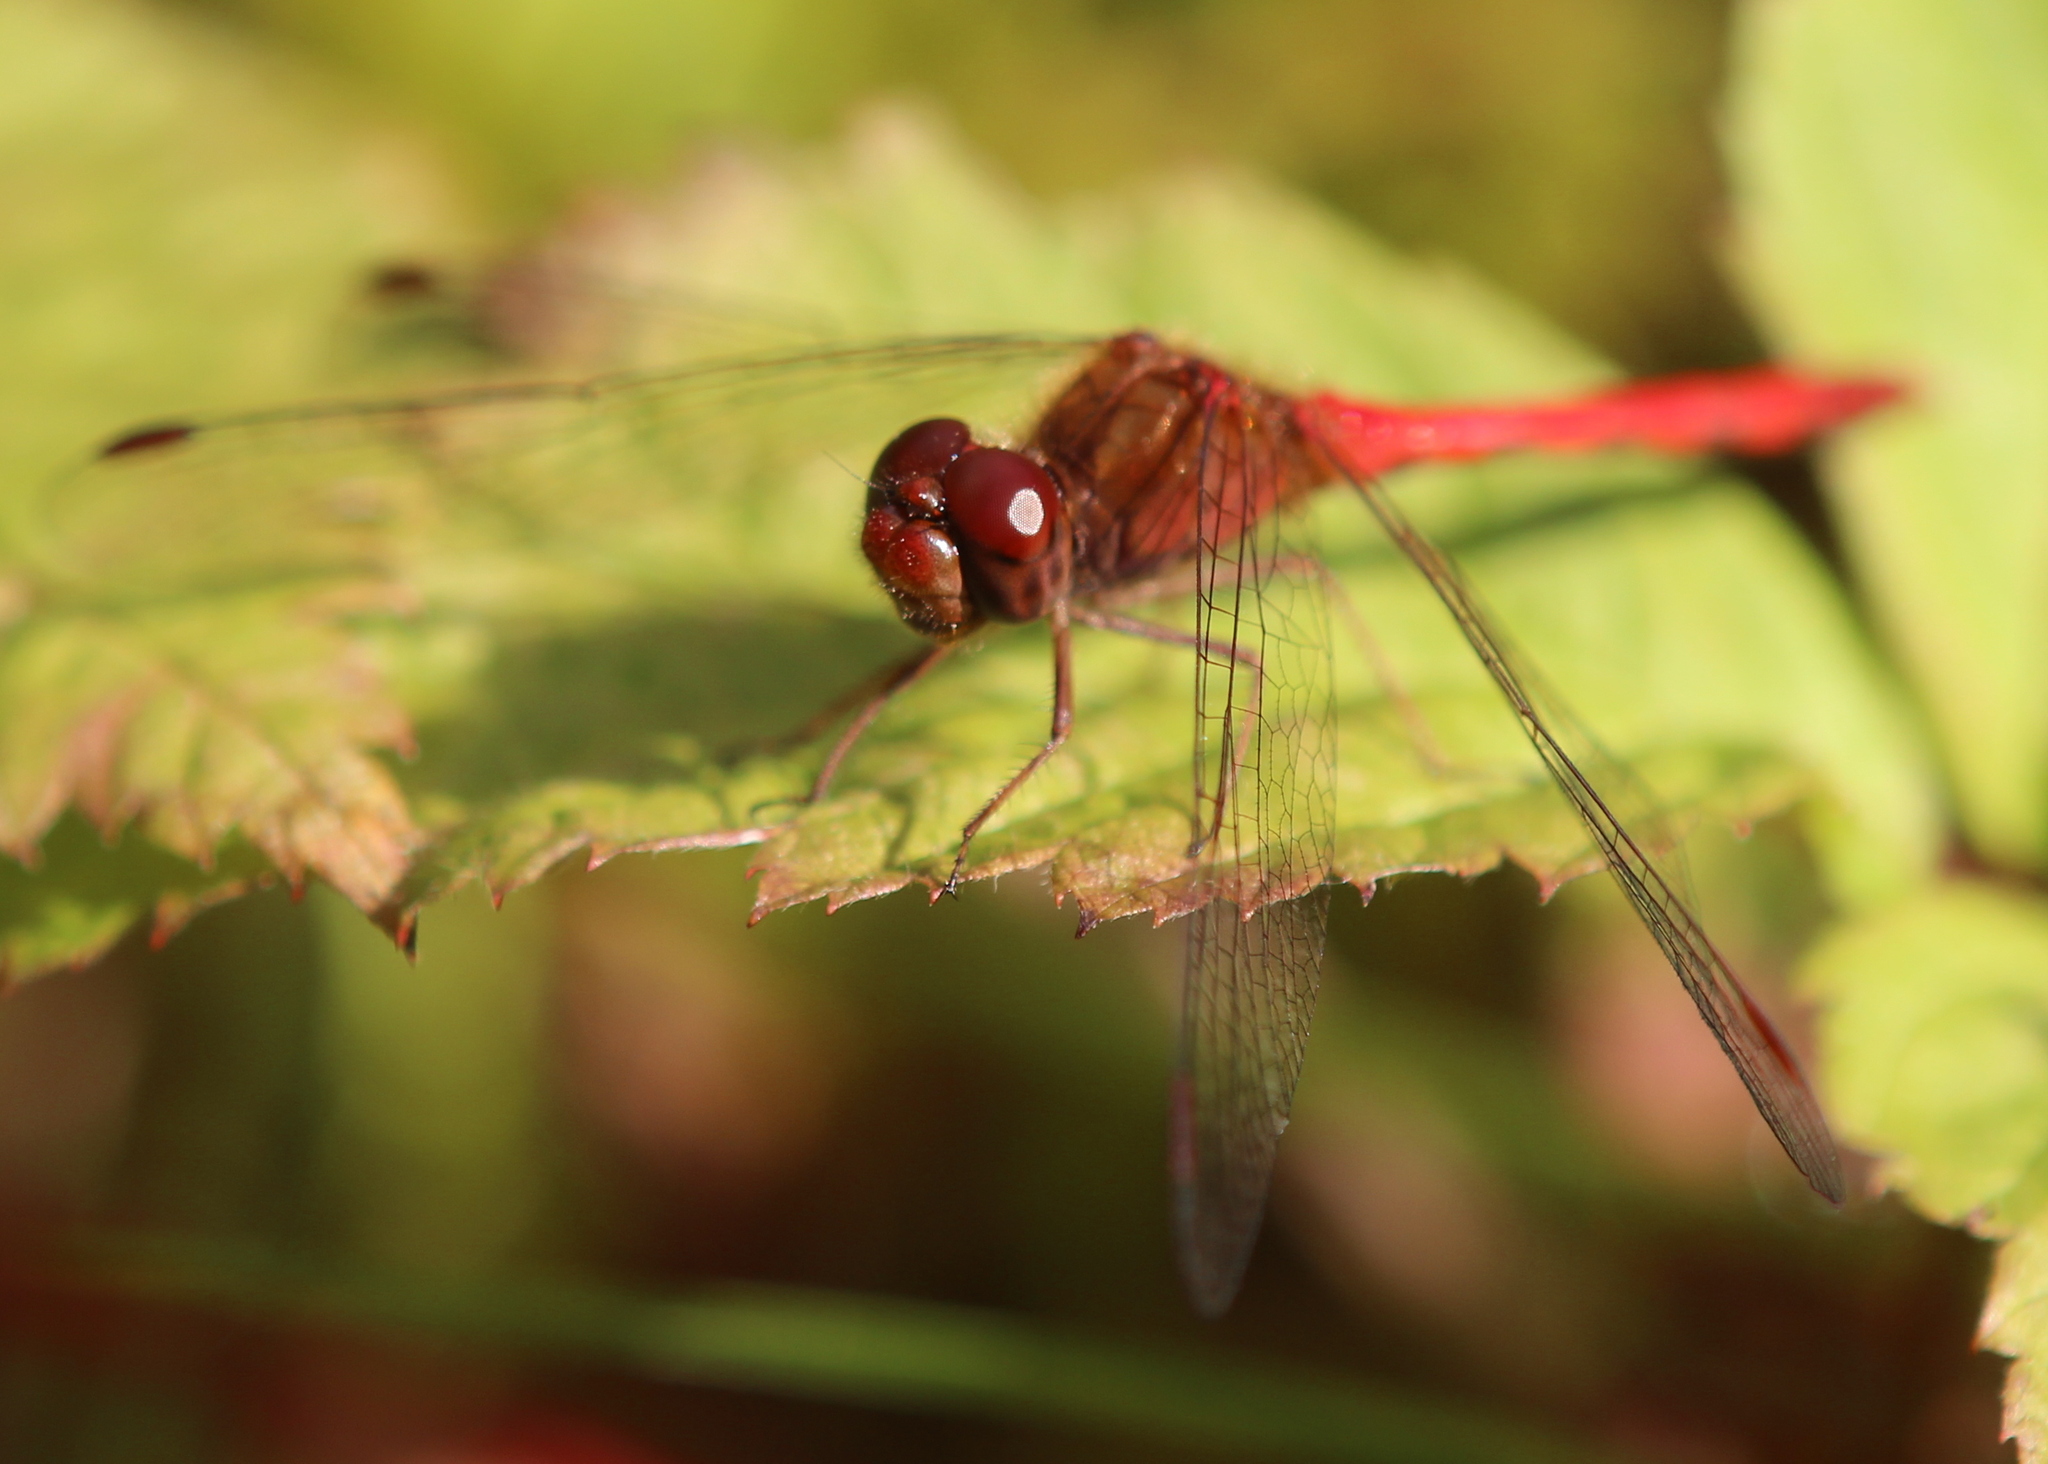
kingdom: Animalia
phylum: Arthropoda
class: Insecta
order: Odonata
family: Libellulidae
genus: Sympetrum
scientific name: Sympetrum vicinum
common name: Autumn meadowhawk
